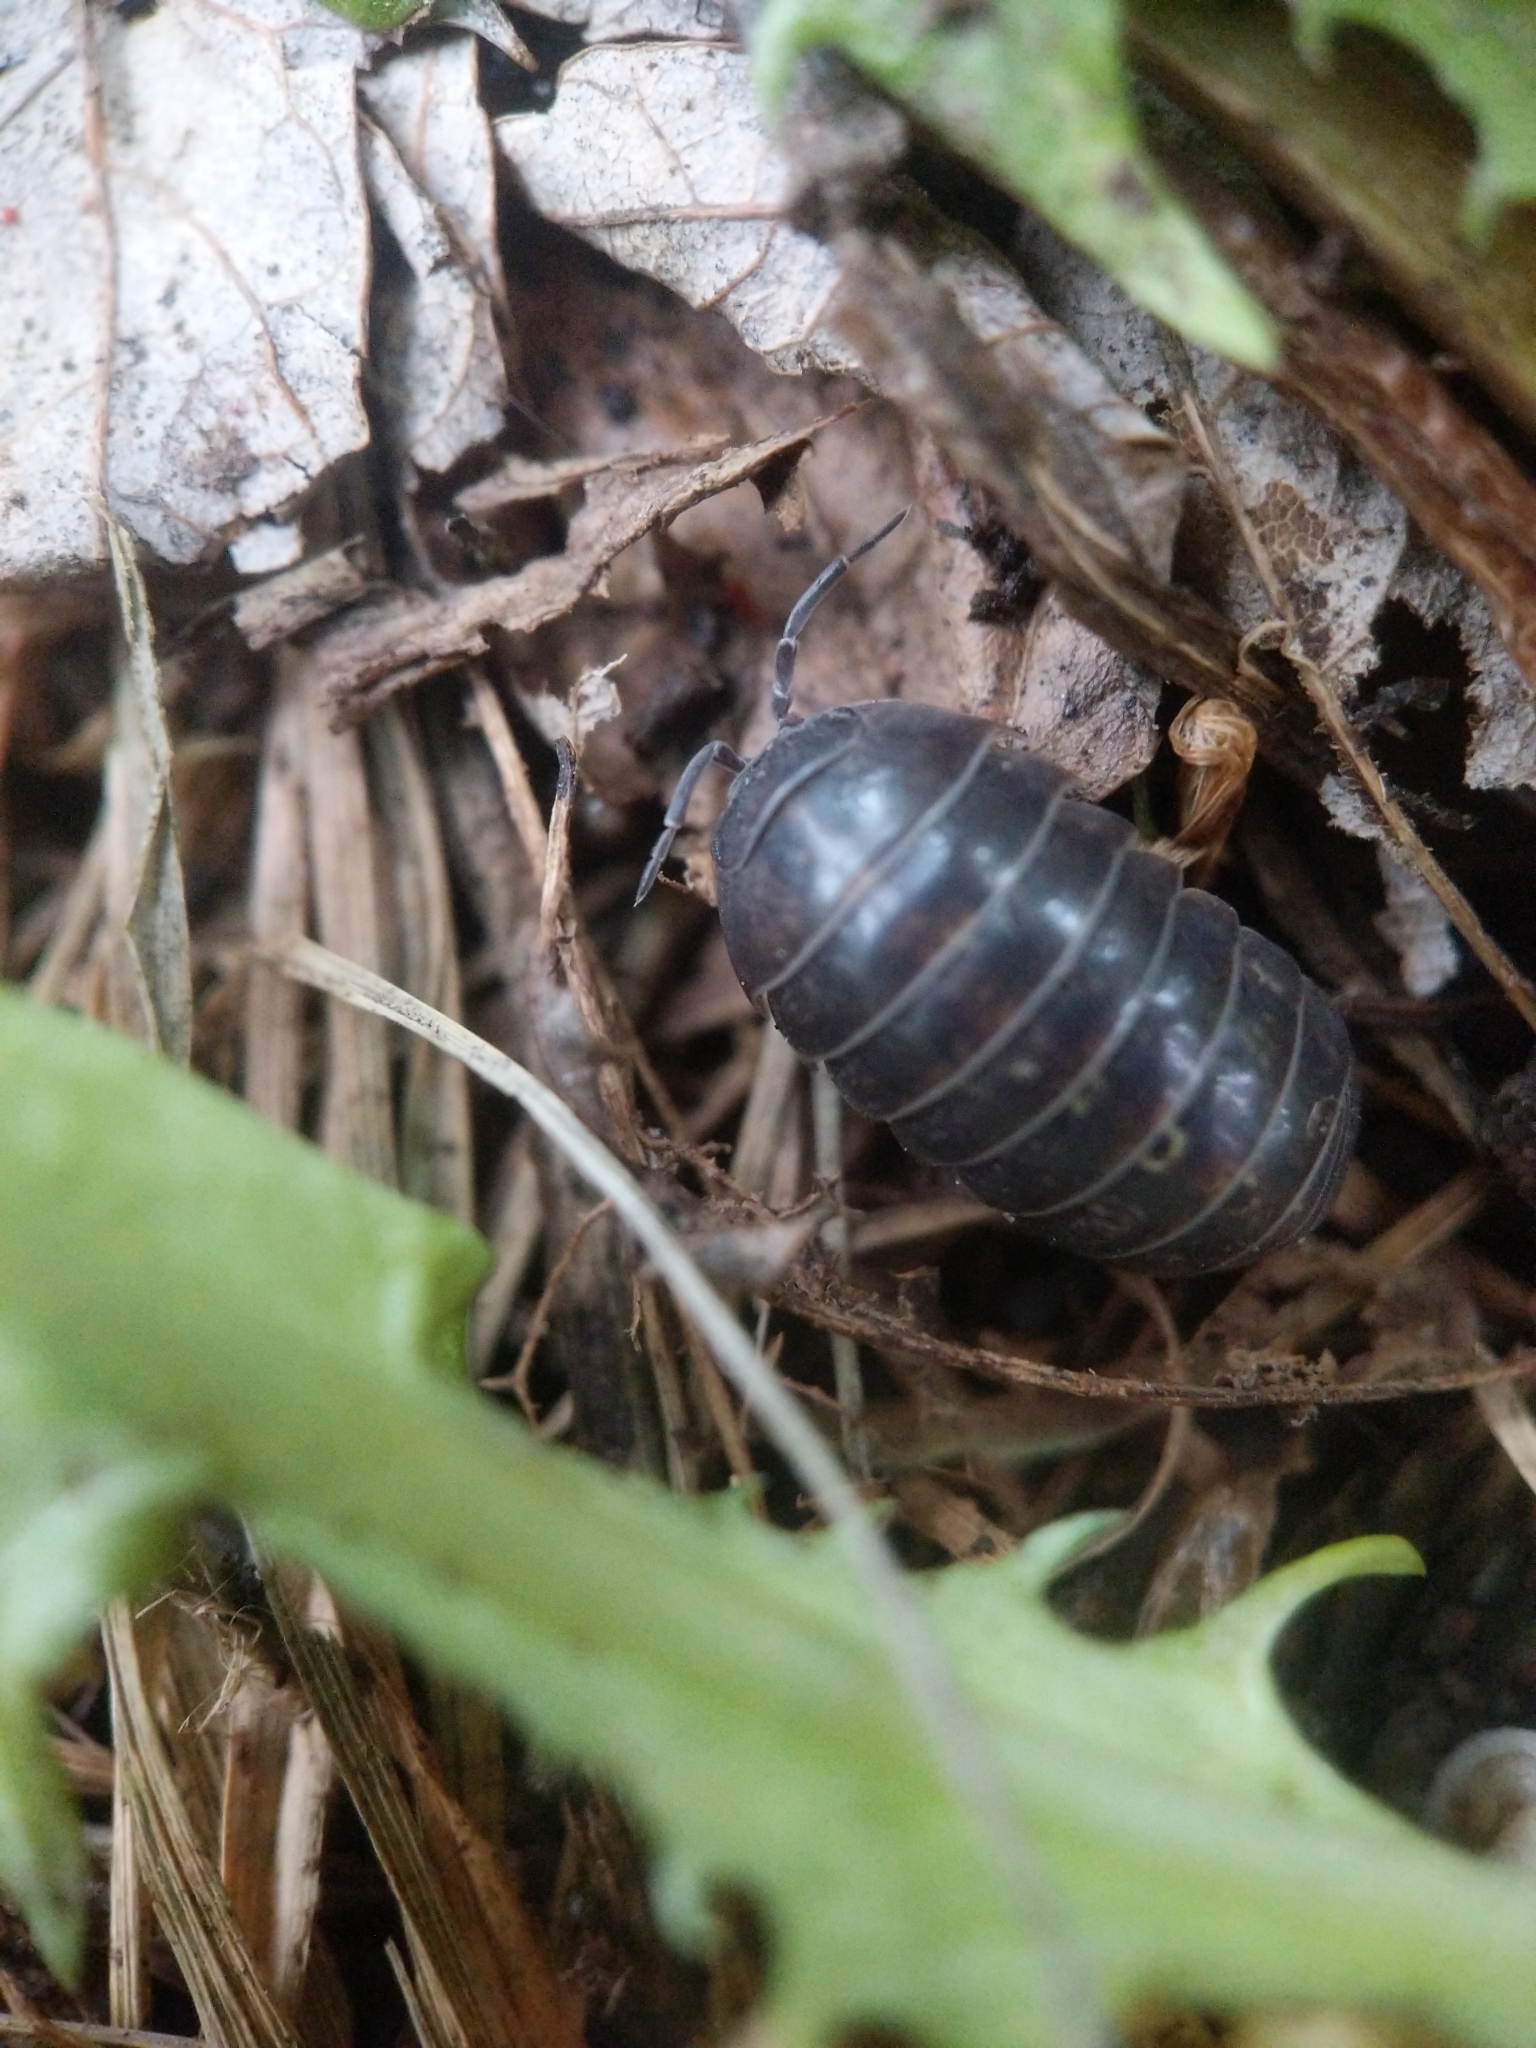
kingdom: Animalia
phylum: Arthropoda
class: Malacostraca
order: Isopoda
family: Armadillidiidae
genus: Armadillidium
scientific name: Armadillidium vulgare
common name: Common pill woodlouse
